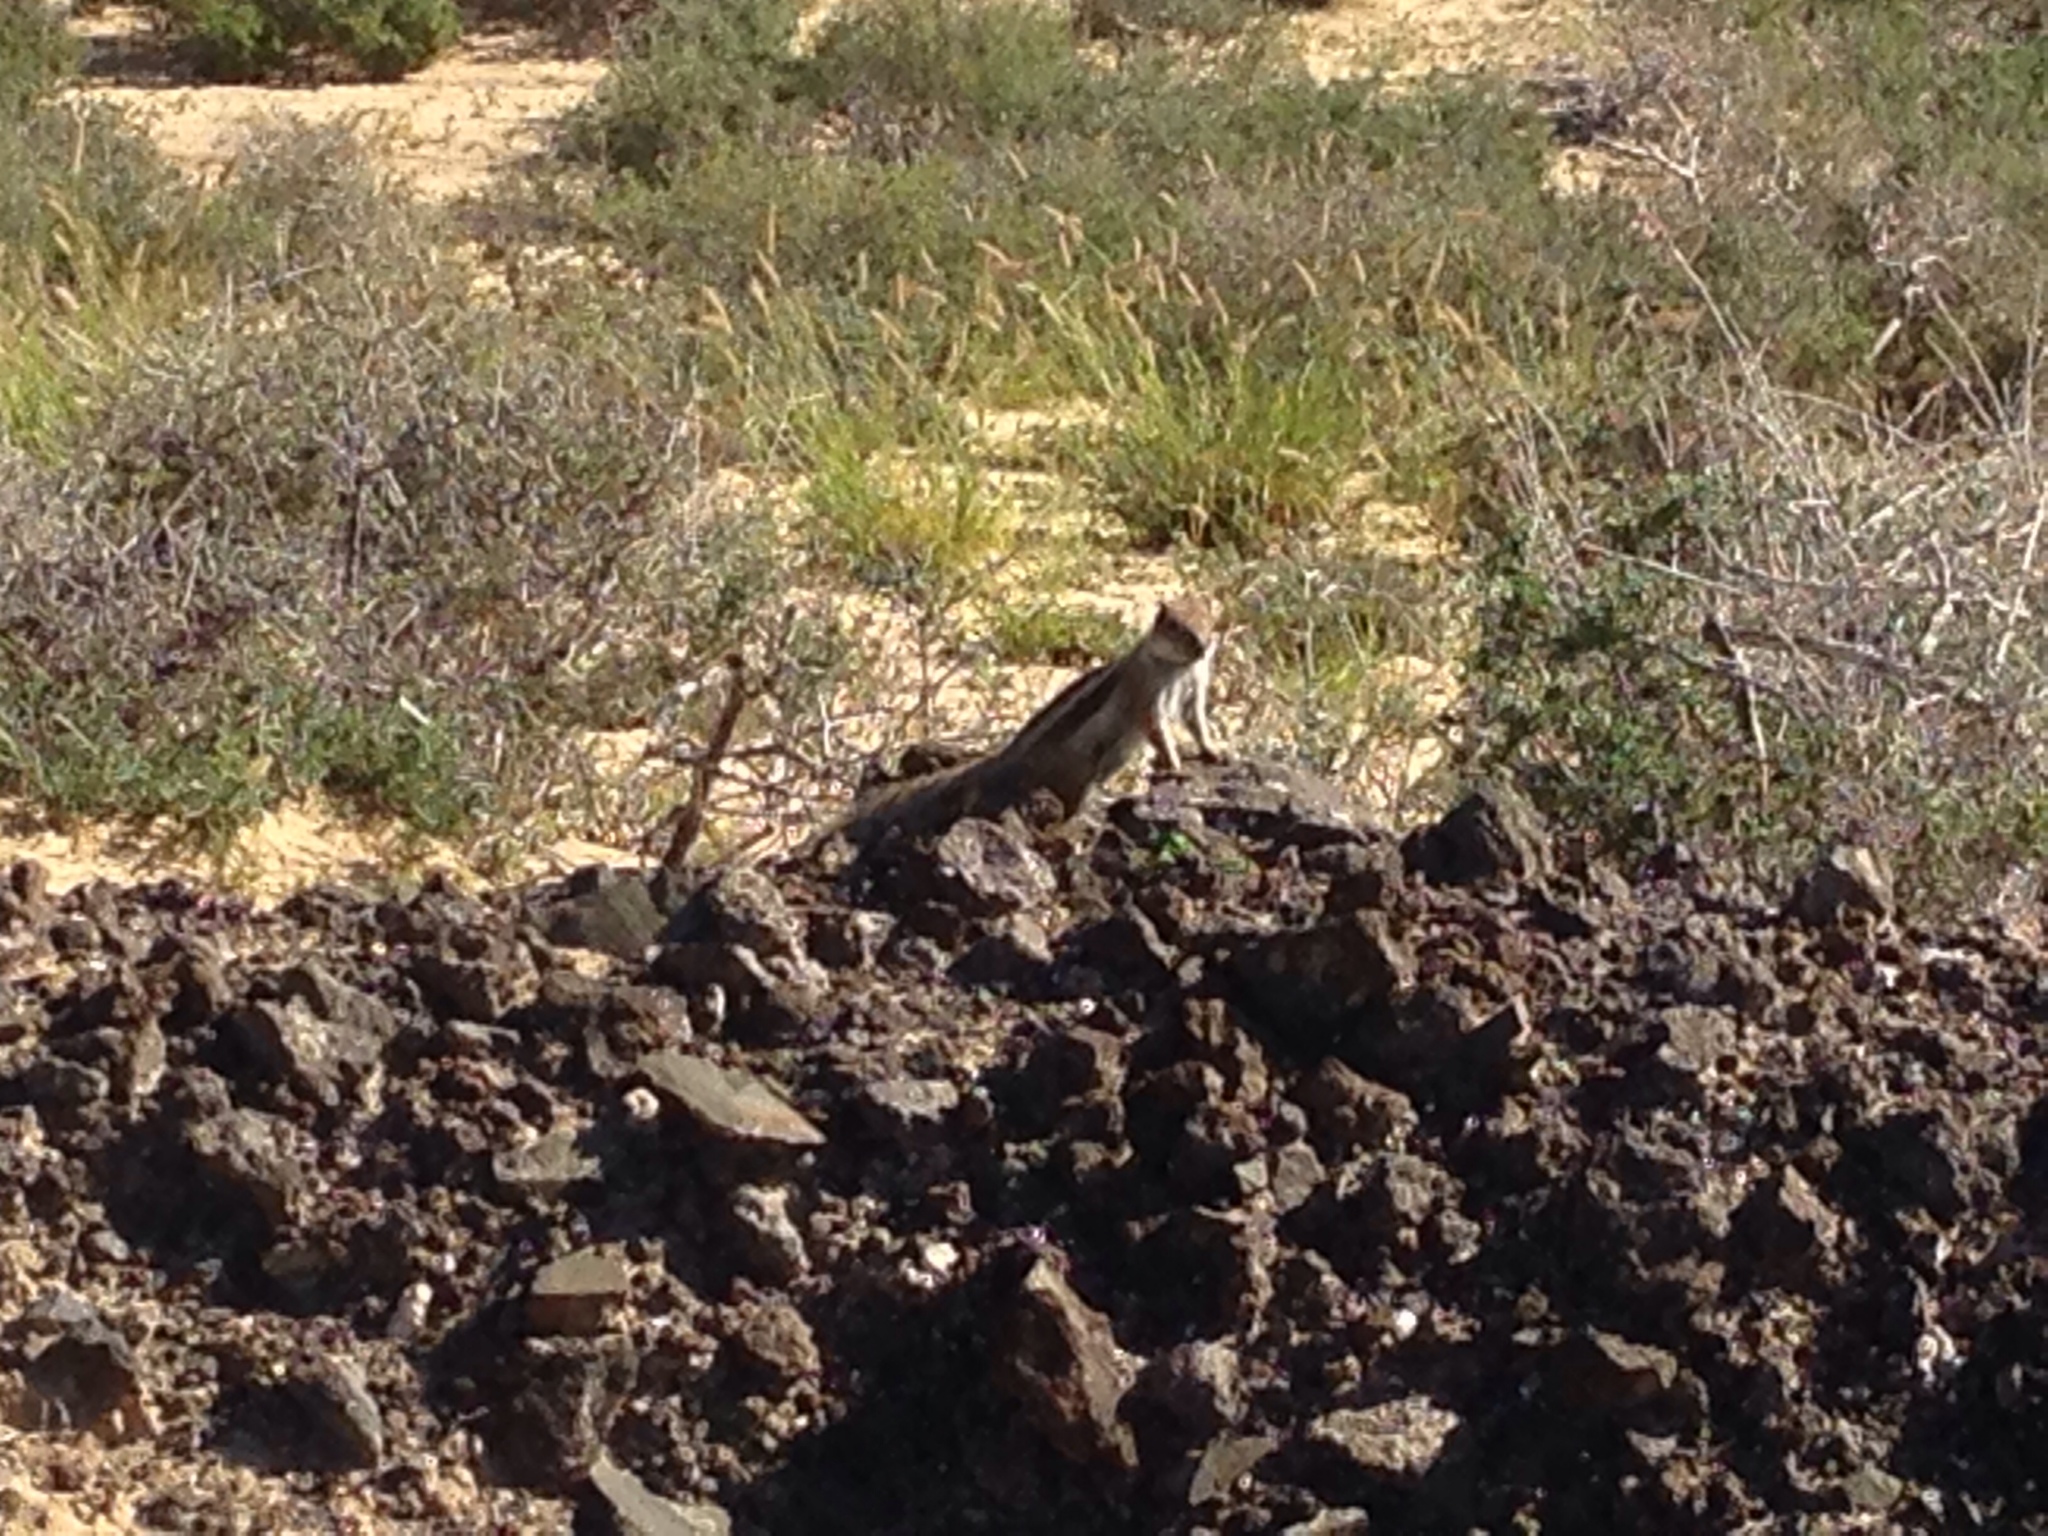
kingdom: Animalia
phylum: Chordata
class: Mammalia
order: Rodentia
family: Sciuridae
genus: Atlantoxerus
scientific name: Atlantoxerus getulus
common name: Barbary ground squirrel
